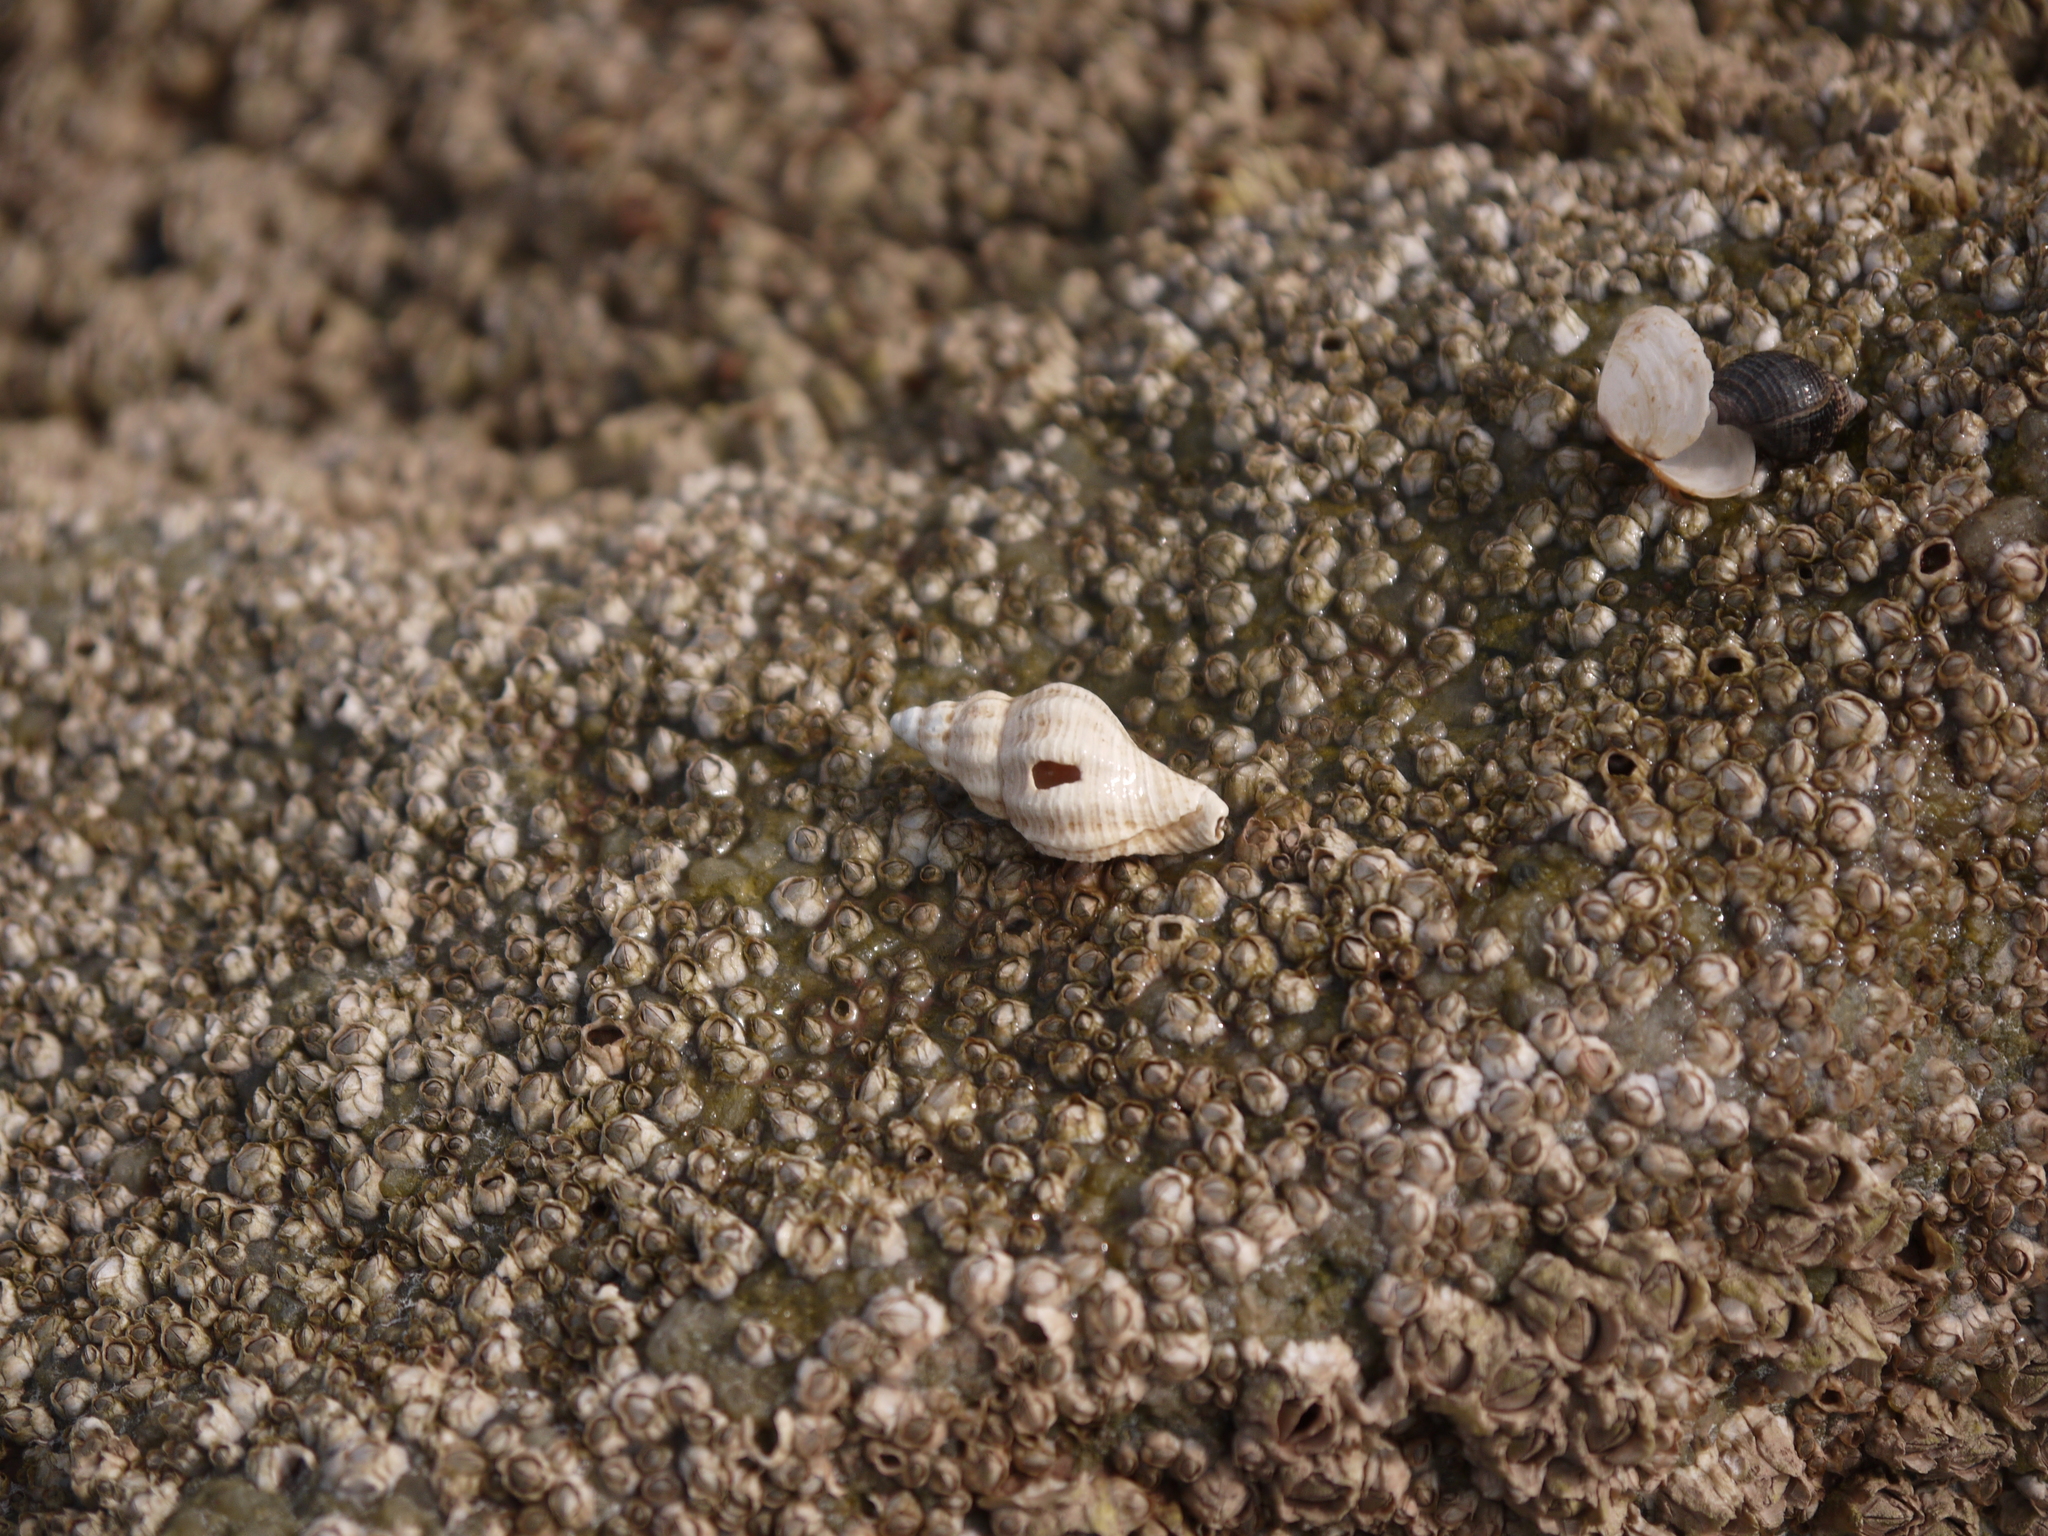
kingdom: Animalia
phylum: Mollusca
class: Gastropoda
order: Neogastropoda
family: Muricidae
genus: Urosalpinx
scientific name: Urosalpinx cinerea
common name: American sting winkle
